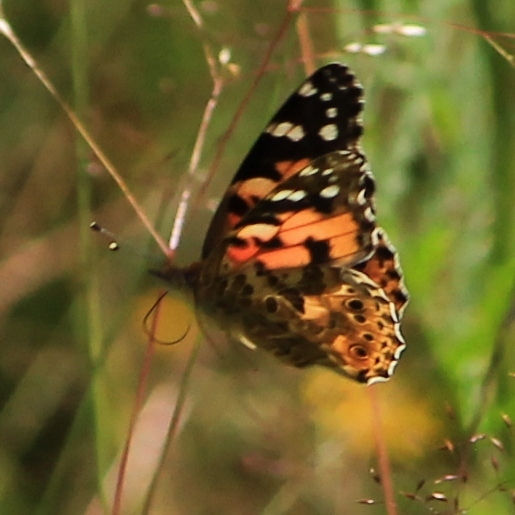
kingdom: Animalia
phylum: Arthropoda
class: Insecta
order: Lepidoptera
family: Nymphalidae
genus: Vanessa
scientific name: Vanessa cardui
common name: Painted lady
